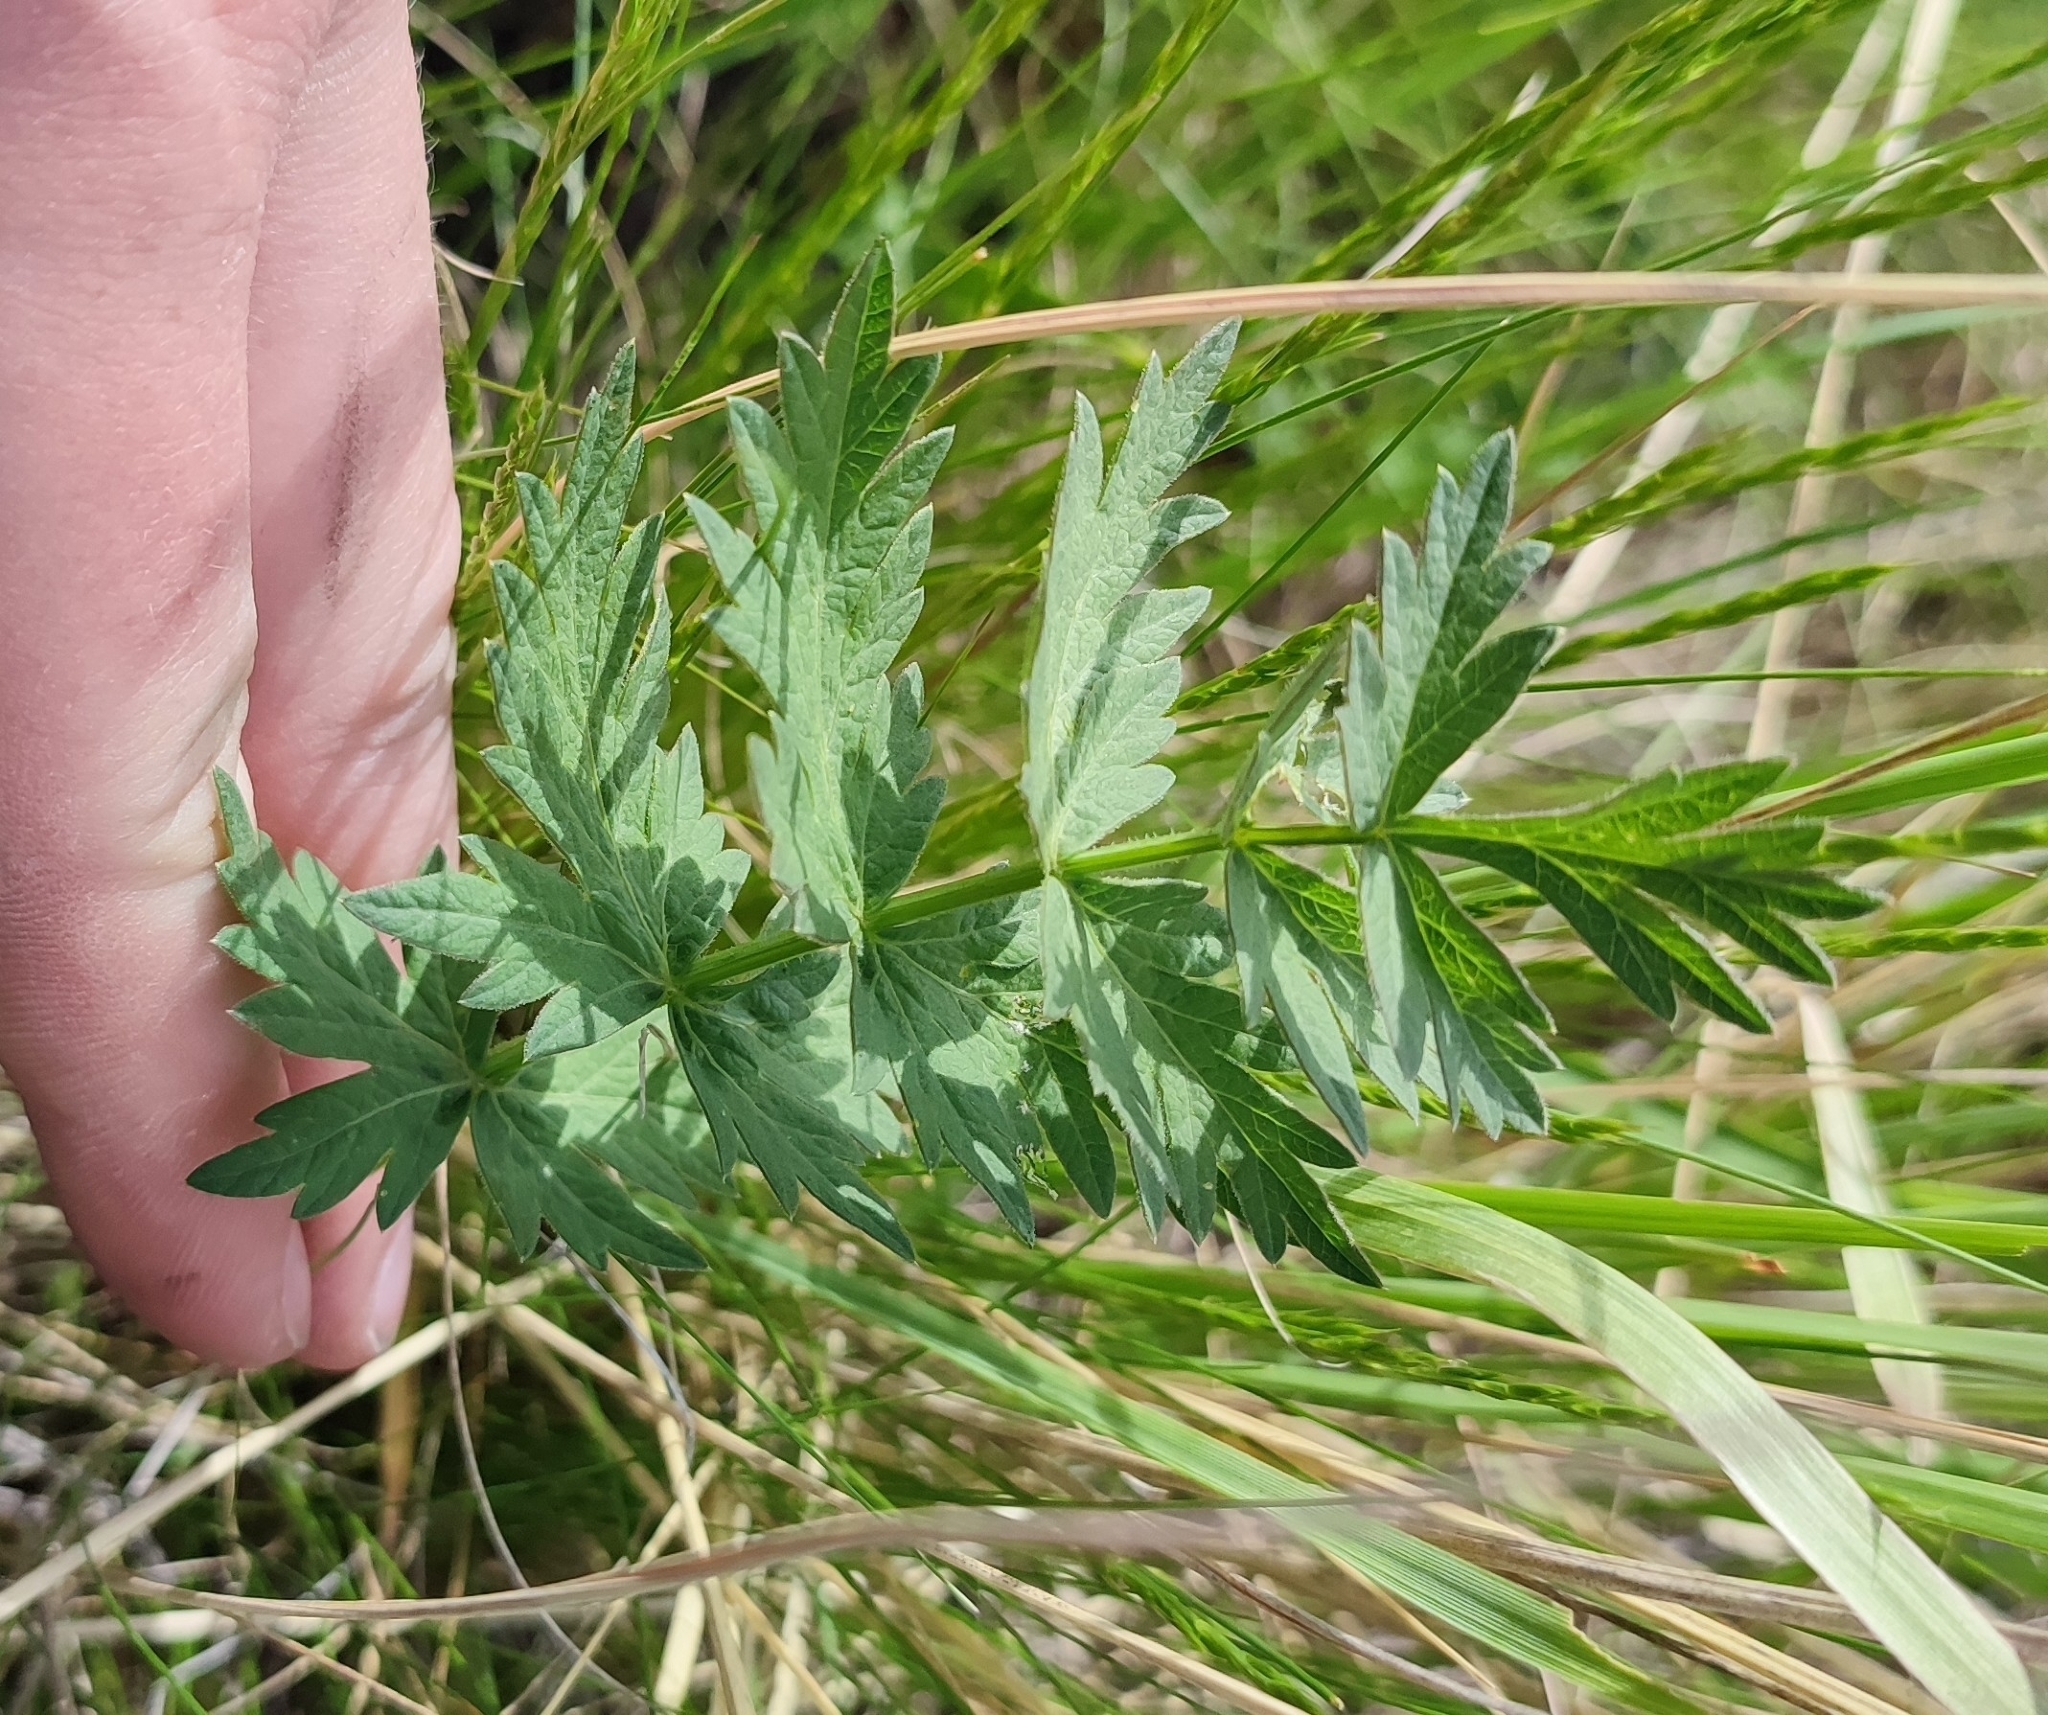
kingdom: Plantae
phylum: Tracheophyta
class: Magnoliopsida
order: Apiales
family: Apiaceae
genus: Seseli
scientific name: Seseli libanotis
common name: Mooncarrot
